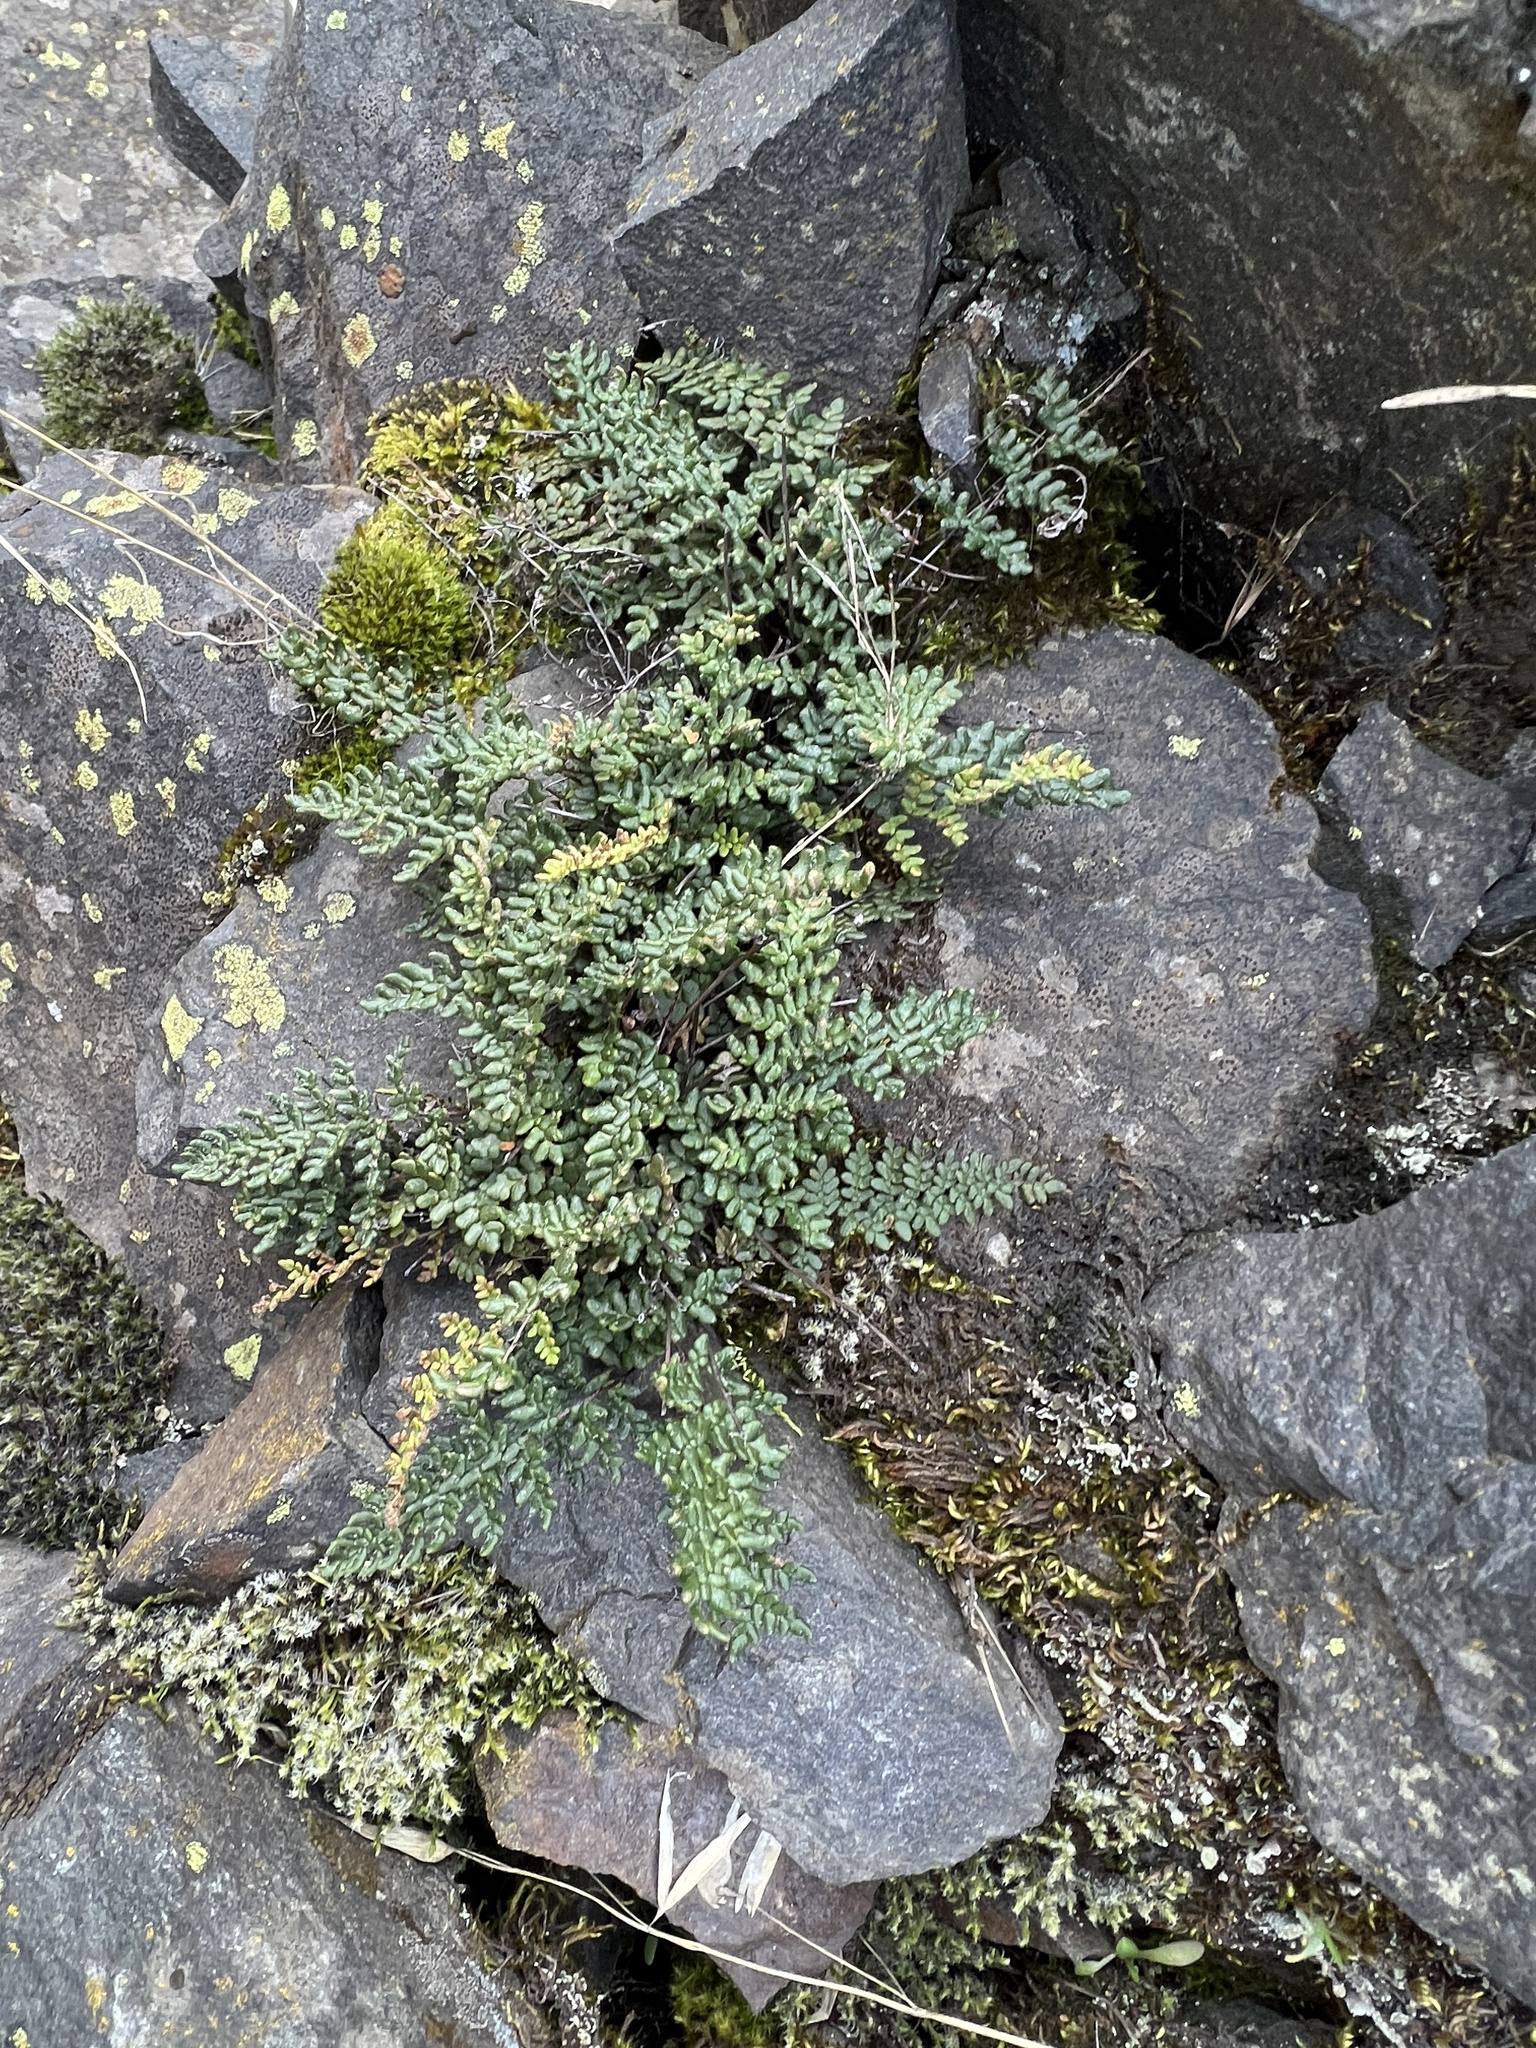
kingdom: Plantae
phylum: Tracheophyta
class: Polypodiopsida
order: Polypodiales
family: Pteridaceae
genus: Myriopteris
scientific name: Myriopteris gracillima
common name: Lace fern
